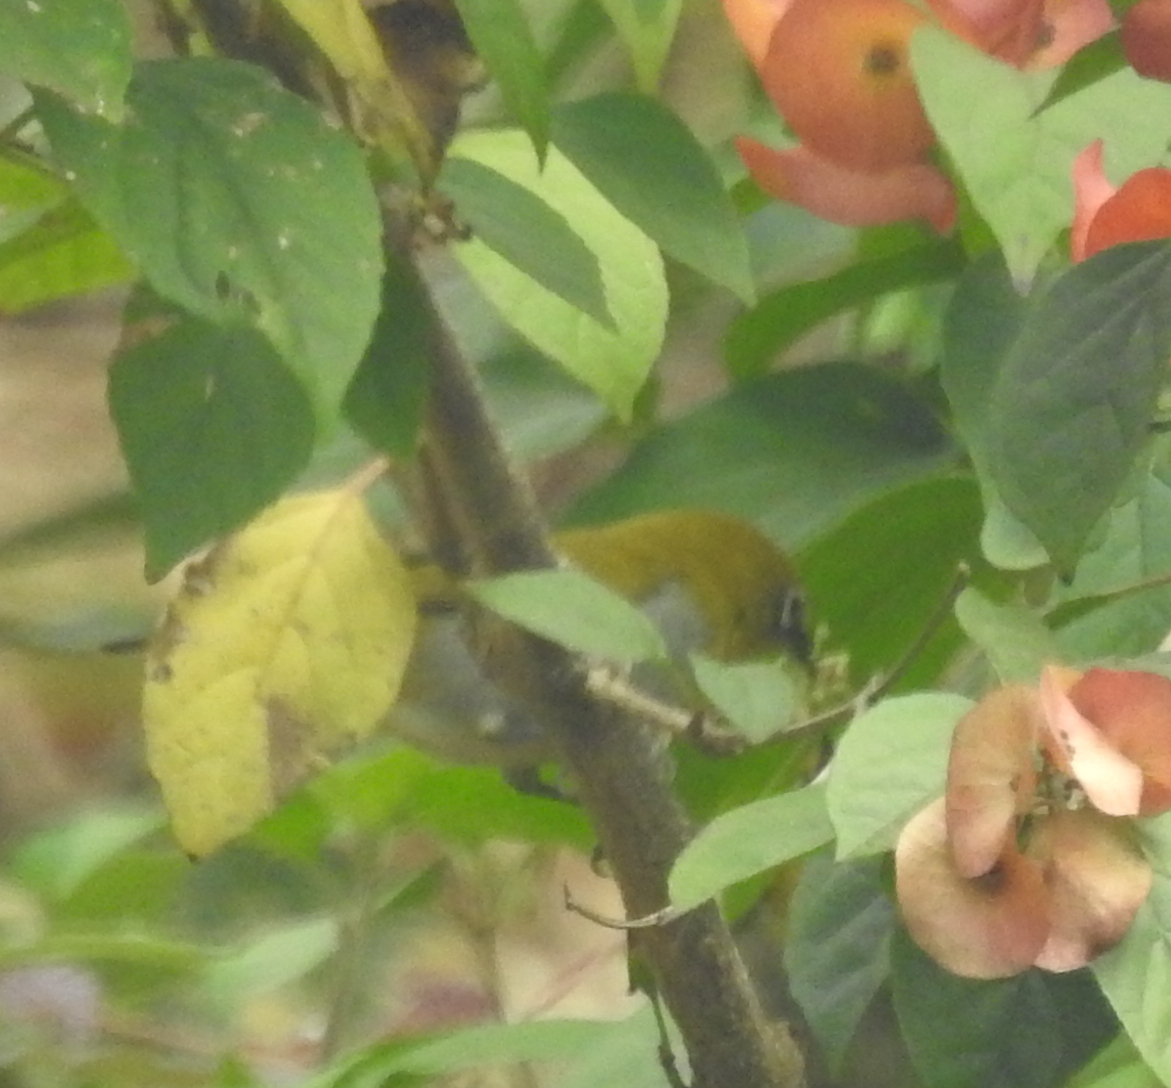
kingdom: Animalia
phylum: Chordata
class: Aves
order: Passeriformes
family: Zosteropidae
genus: Zosterops
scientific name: Zosterops palpebrosus
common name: Oriental white-eye
